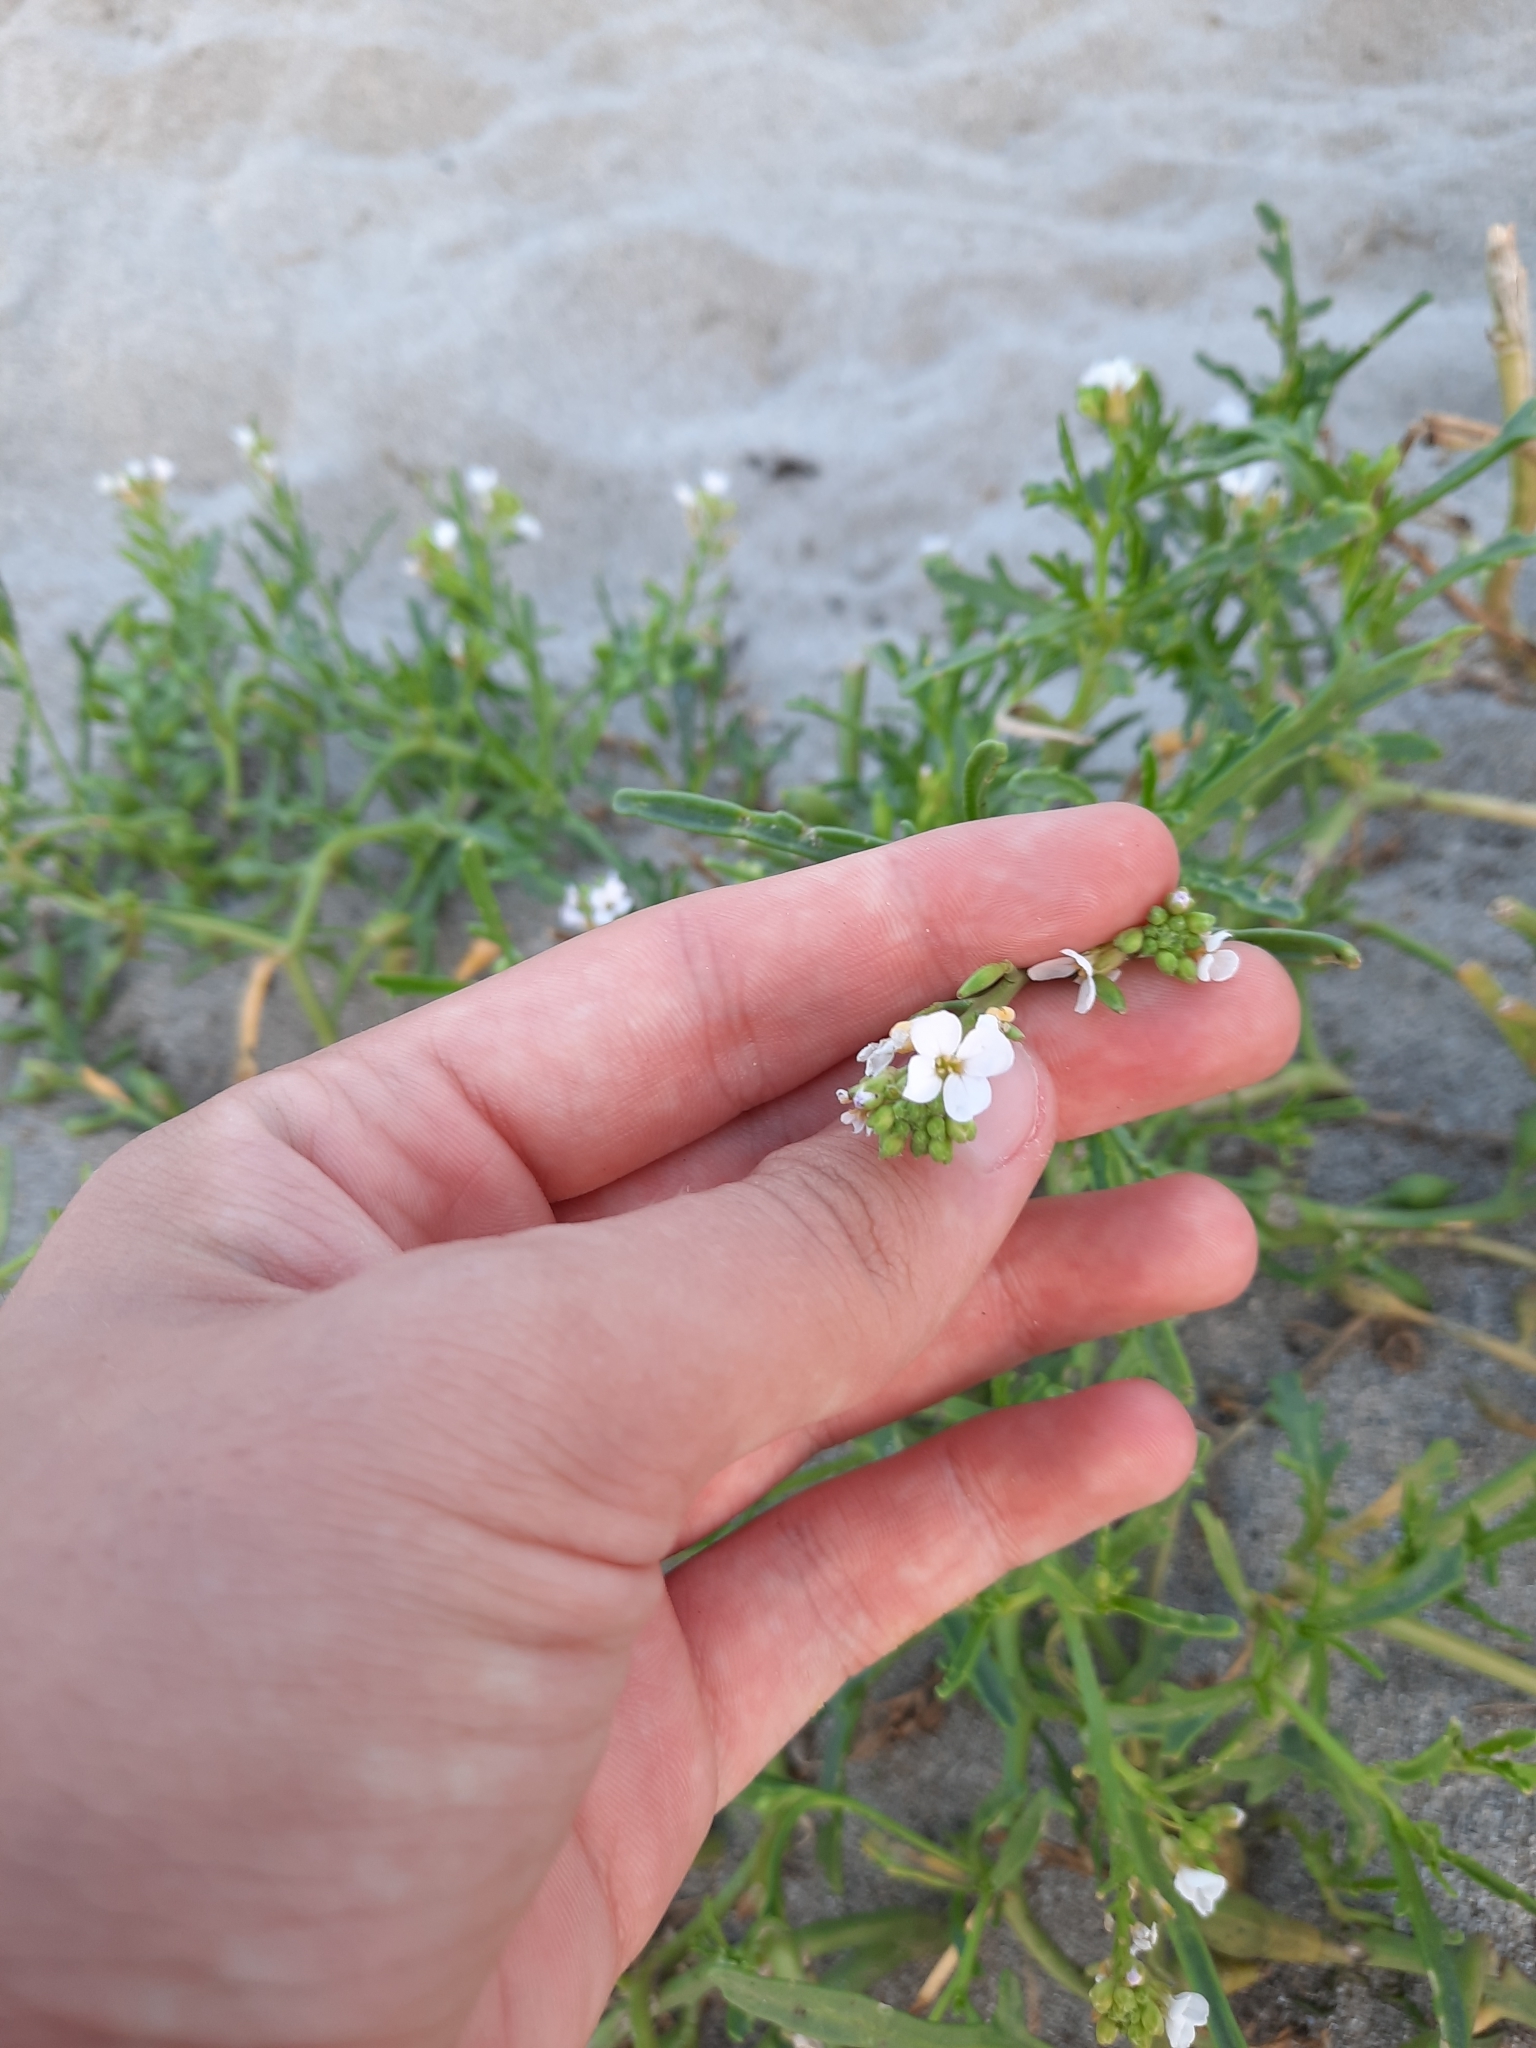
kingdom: Plantae
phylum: Tracheophyta
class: Magnoliopsida
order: Brassicales
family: Brassicaceae
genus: Cakile
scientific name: Cakile maritima
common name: Sea rocket
